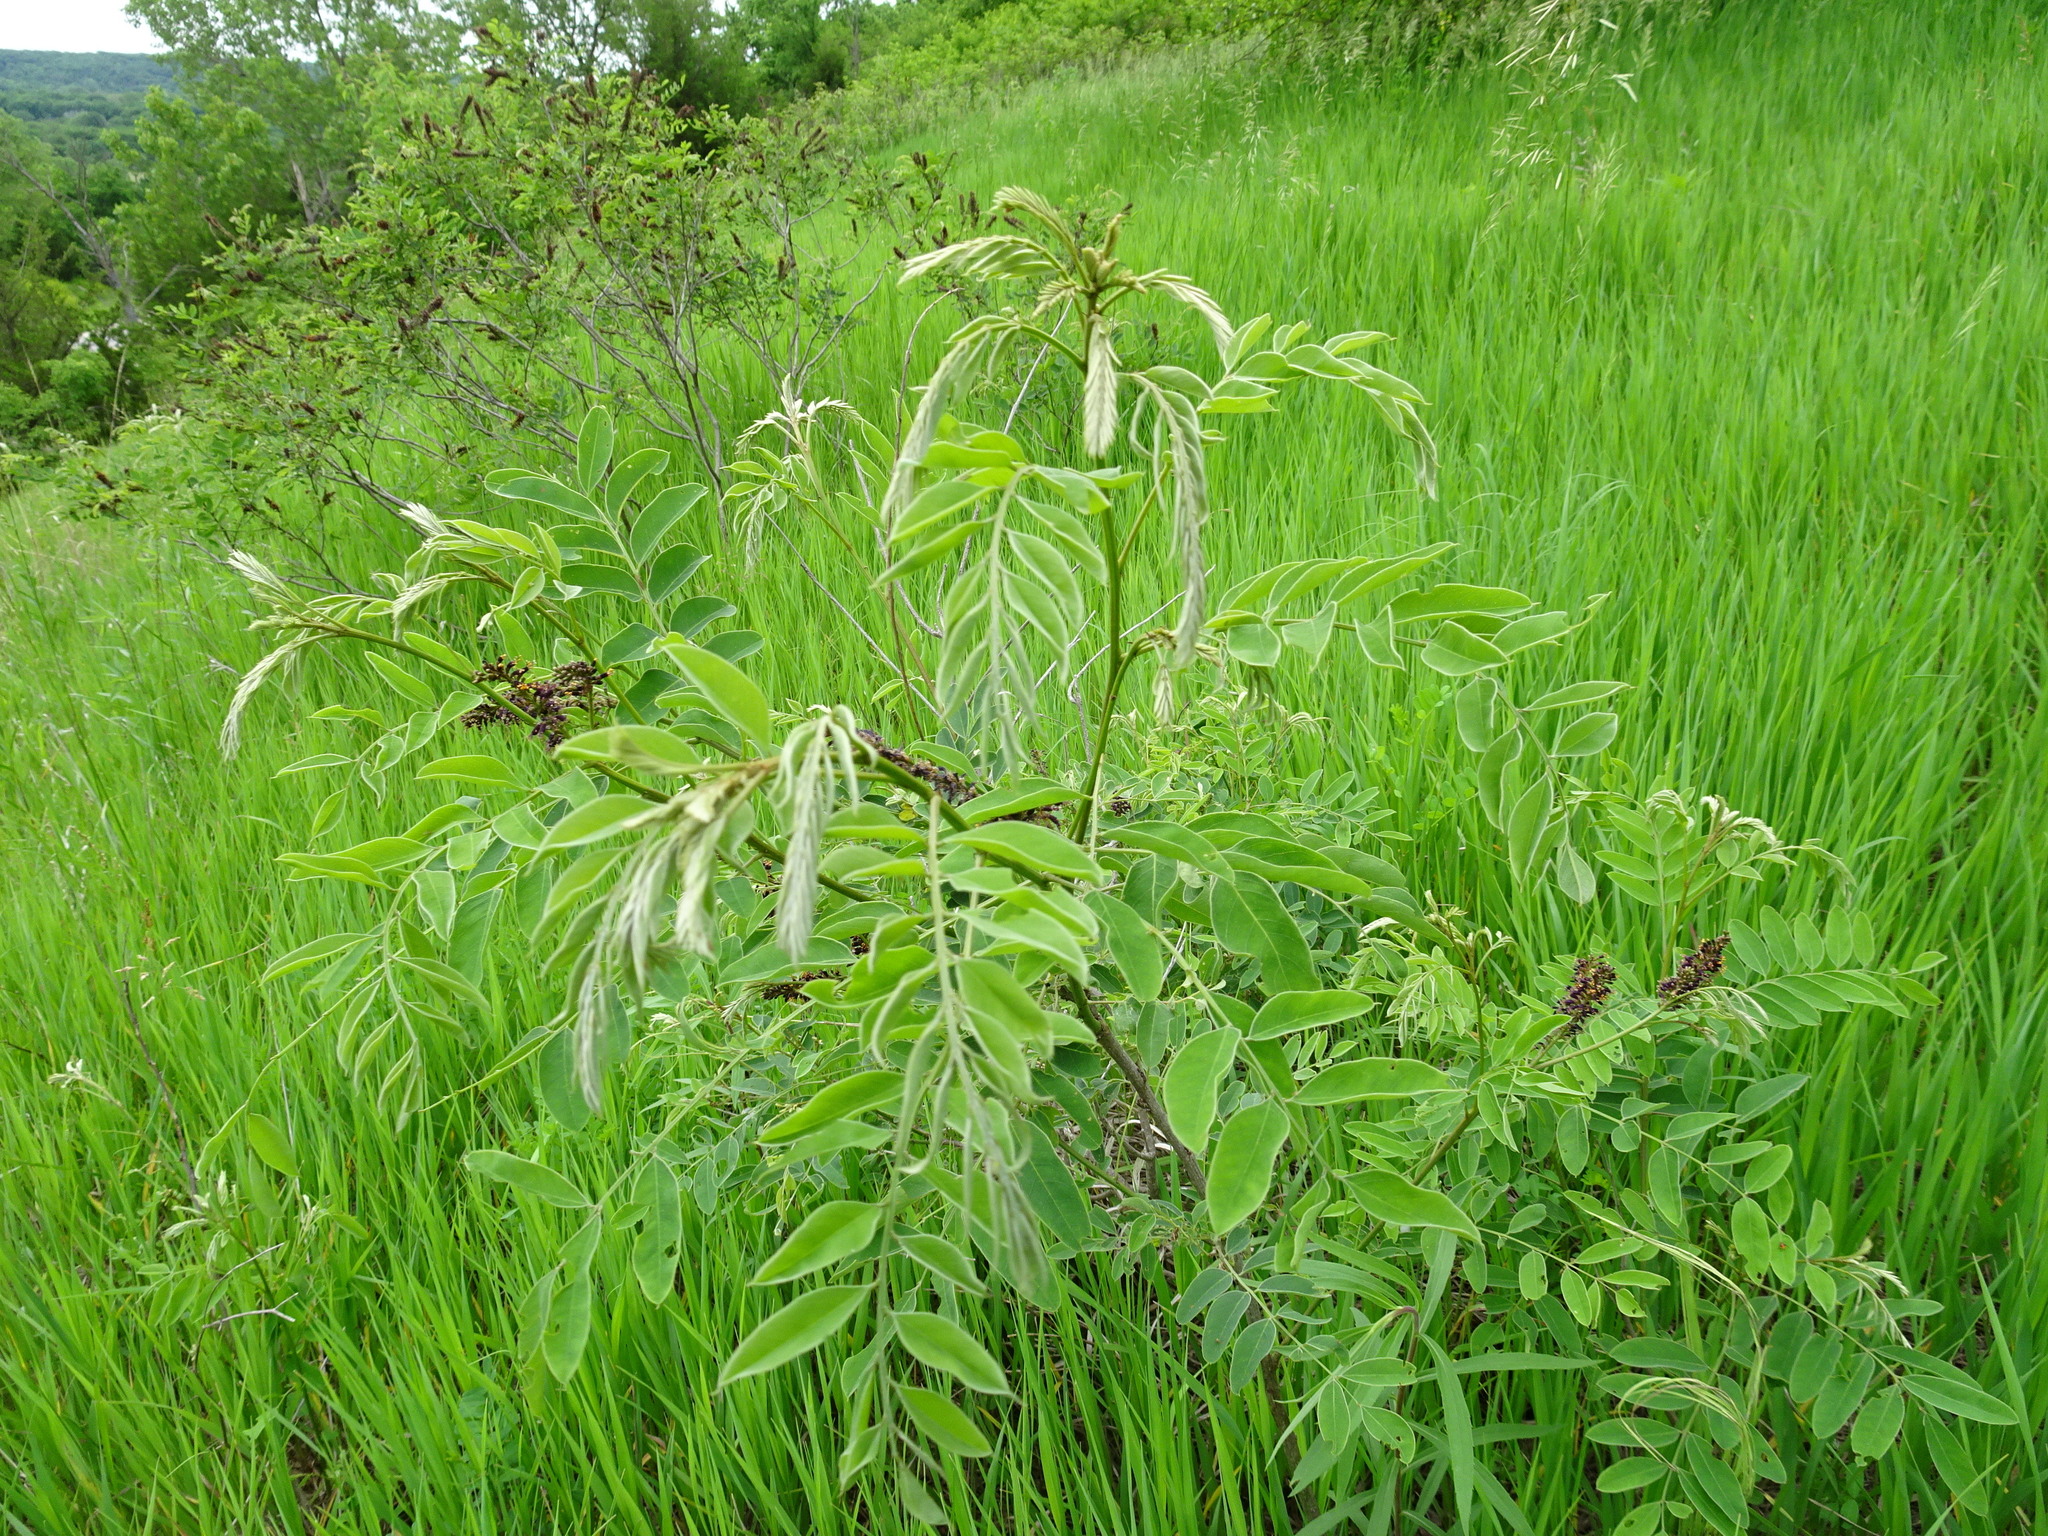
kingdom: Plantae
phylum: Tracheophyta
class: Magnoliopsida
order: Fabales
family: Fabaceae
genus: Amorpha
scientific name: Amorpha fruticosa
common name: False indigo
